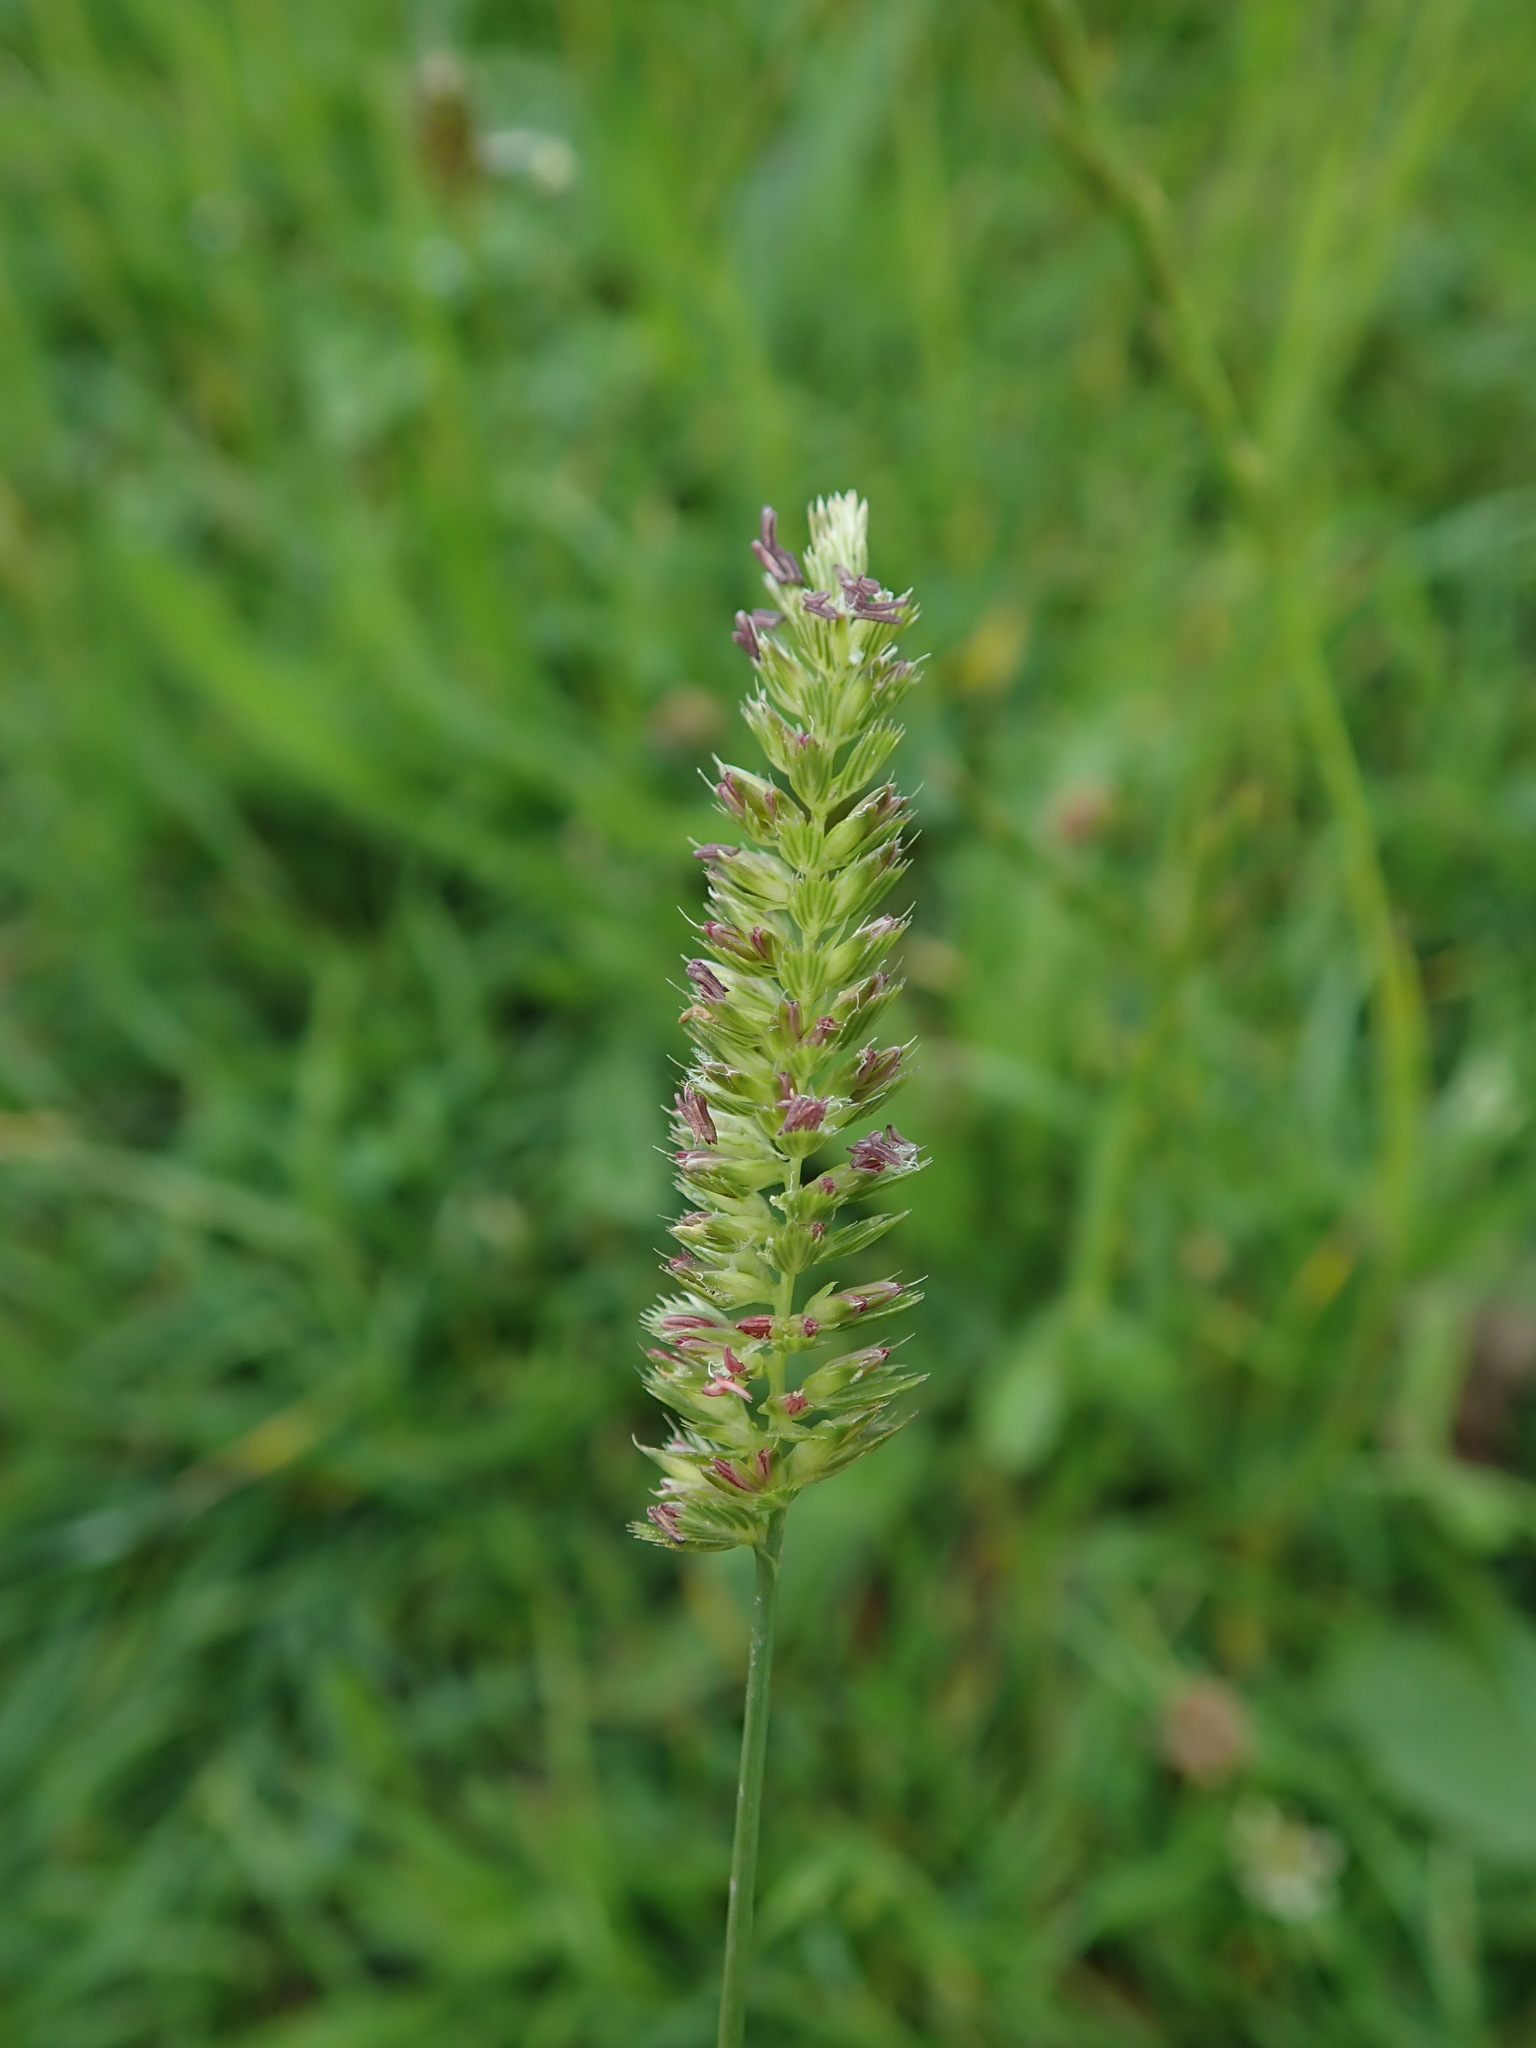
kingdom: Plantae
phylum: Tracheophyta
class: Liliopsida
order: Poales
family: Poaceae
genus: Cynosurus
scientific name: Cynosurus cristatus
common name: Crested dog's-tail
